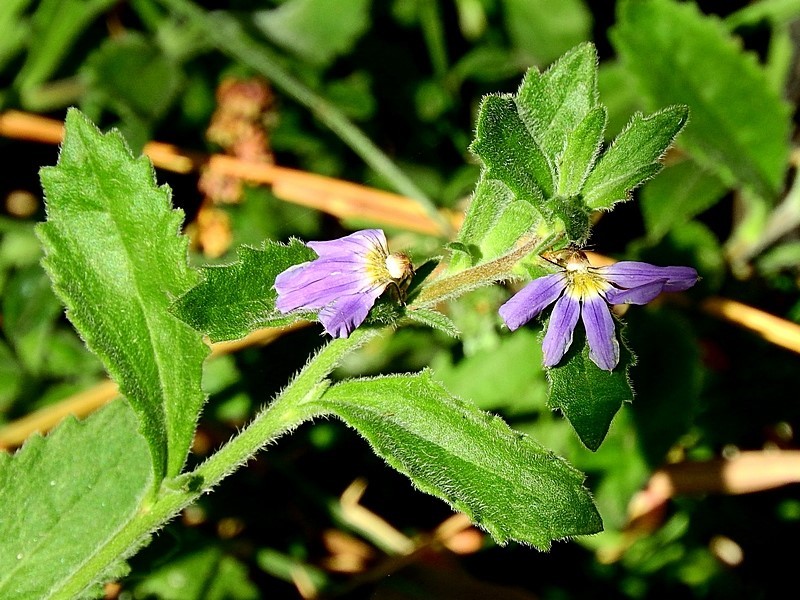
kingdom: Plantae
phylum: Tracheophyta
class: Magnoliopsida
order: Asterales
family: Goodeniaceae
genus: Scaevola
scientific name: Scaevola aemula
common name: Common fanflower
